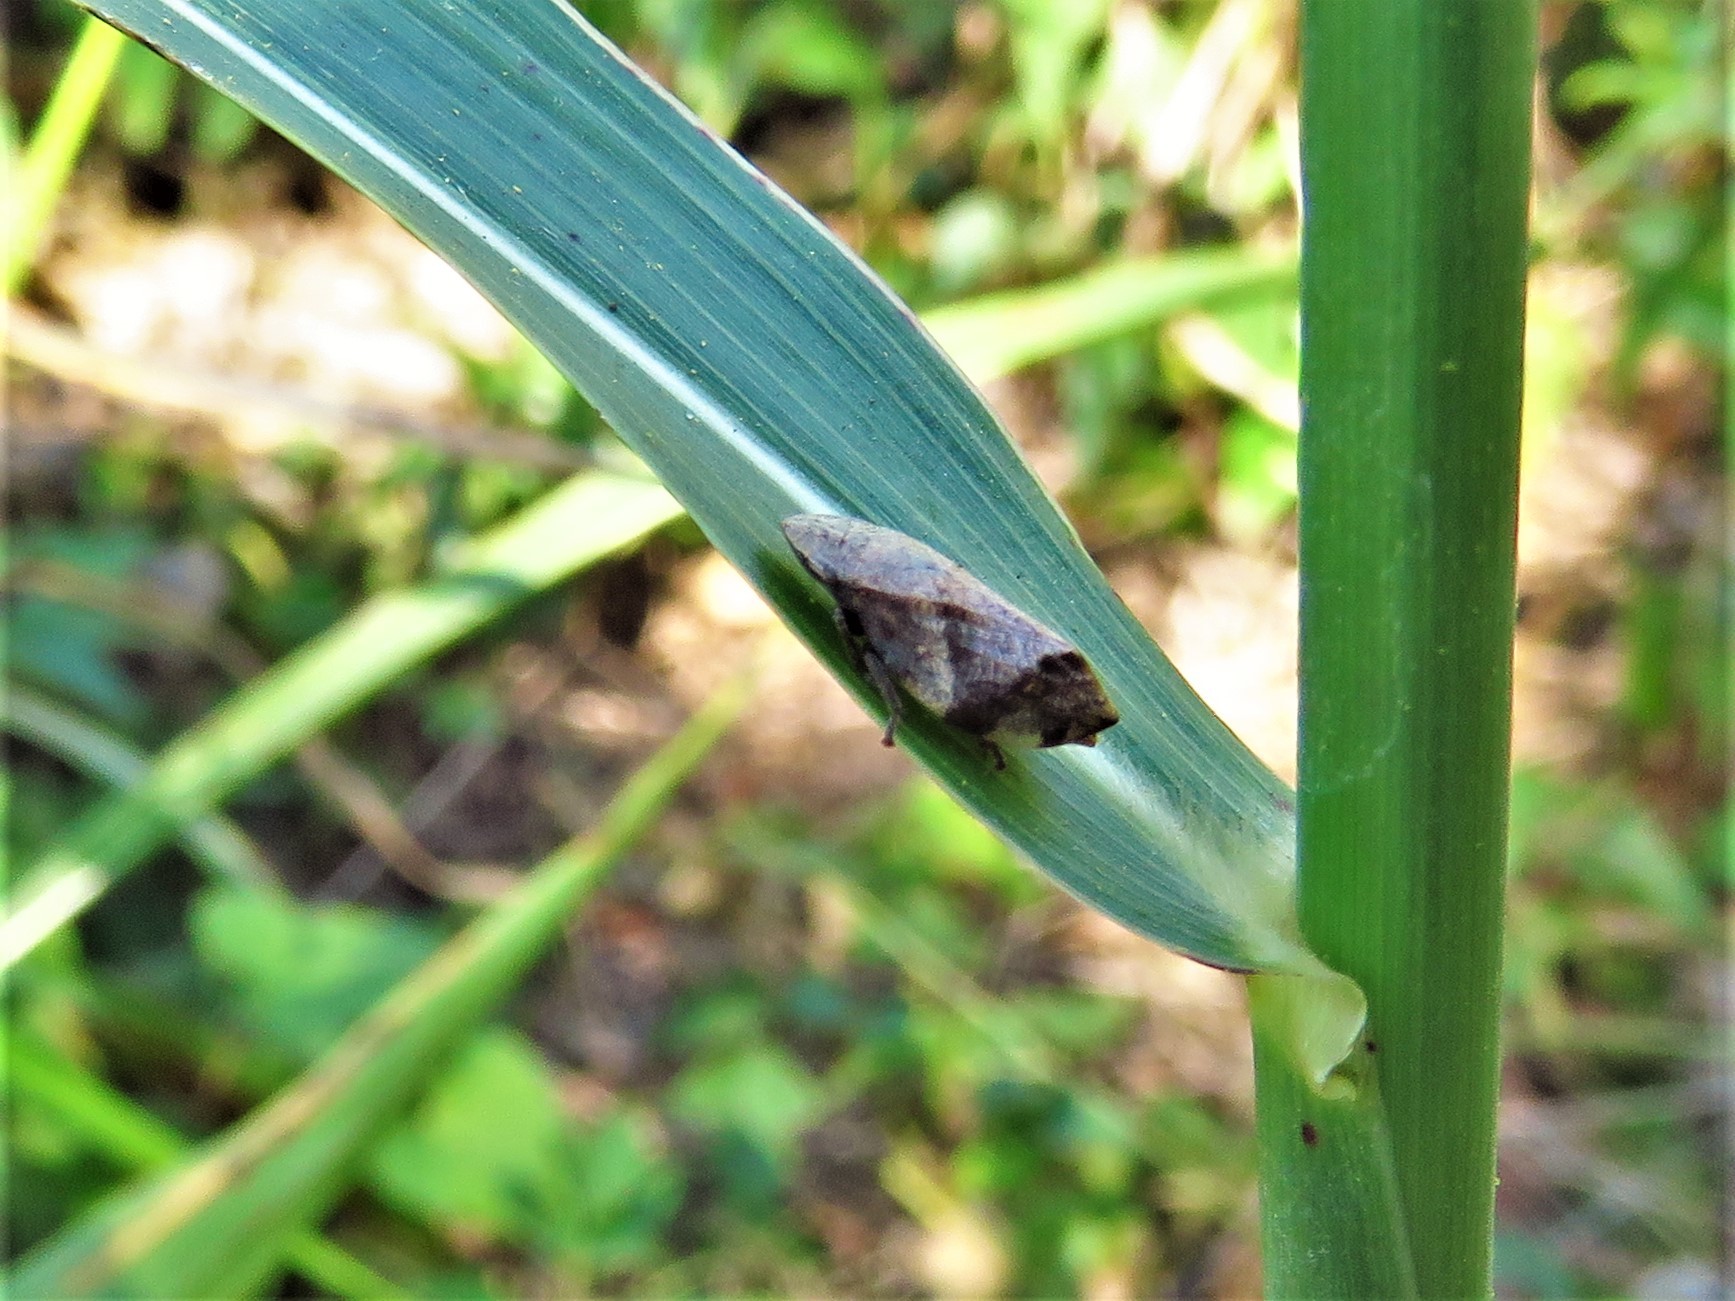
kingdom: Animalia
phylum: Arthropoda
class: Insecta
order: Hemiptera
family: Aphrophoridae
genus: Lepyronia
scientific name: Lepyronia quadrangularis
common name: Diamond-backed spittlebug
